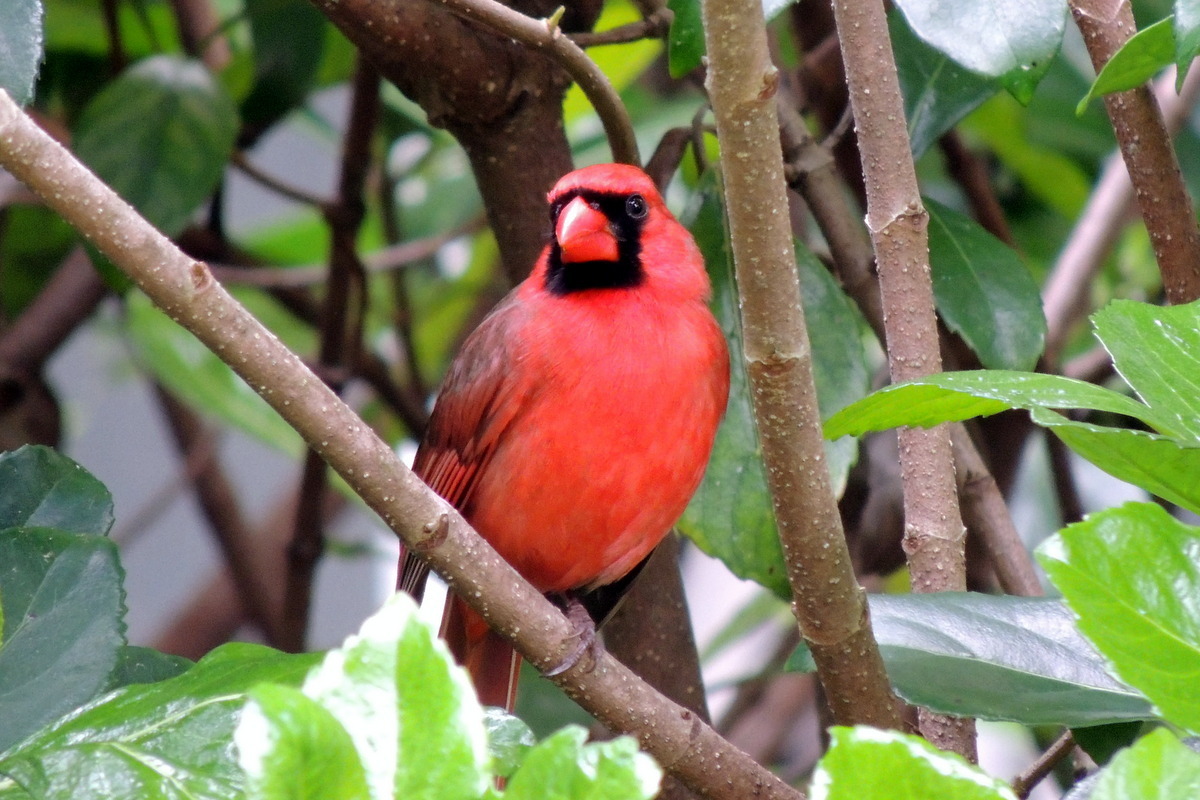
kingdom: Animalia
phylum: Chordata
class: Aves
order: Passeriformes
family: Cardinalidae
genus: Cardinalis
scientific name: Cardinalis cardinalis
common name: Northern cardinal
